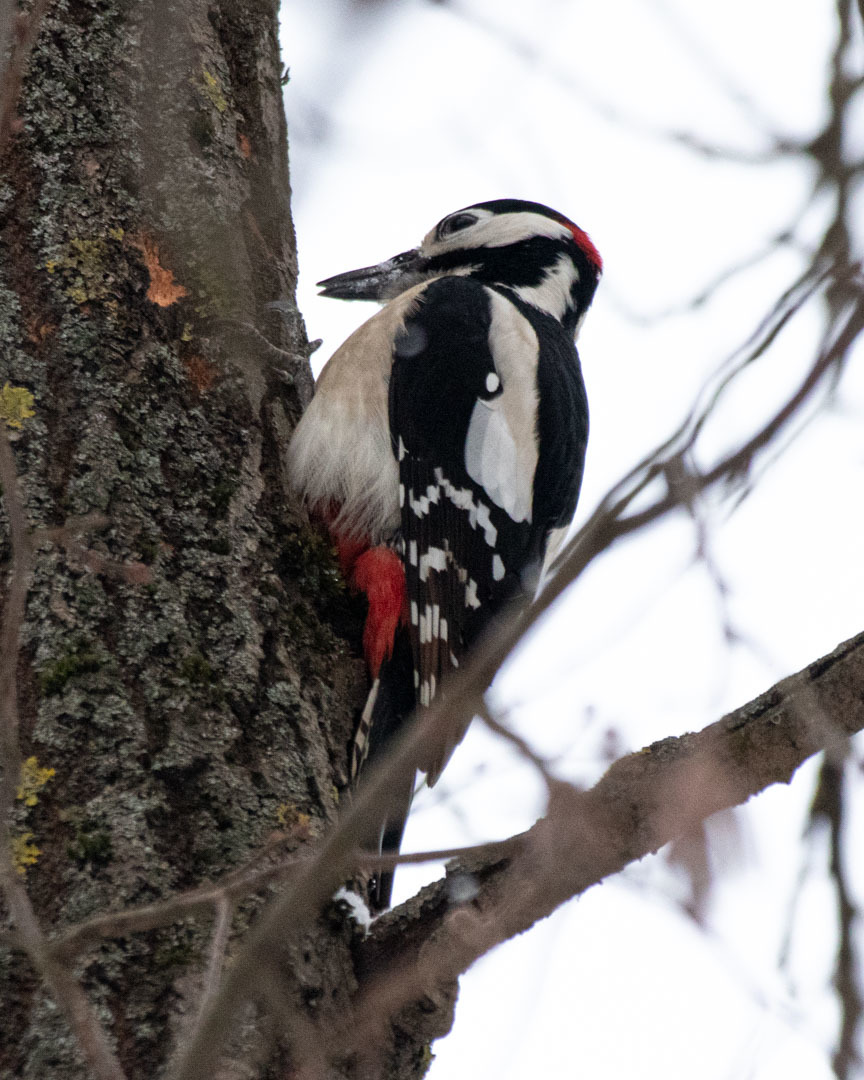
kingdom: Animalia
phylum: Chordata
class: Aves
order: Piciformes
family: Picidae
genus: Dendrocopos
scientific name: Dendrocopos major
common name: Great spotted woodpecker
